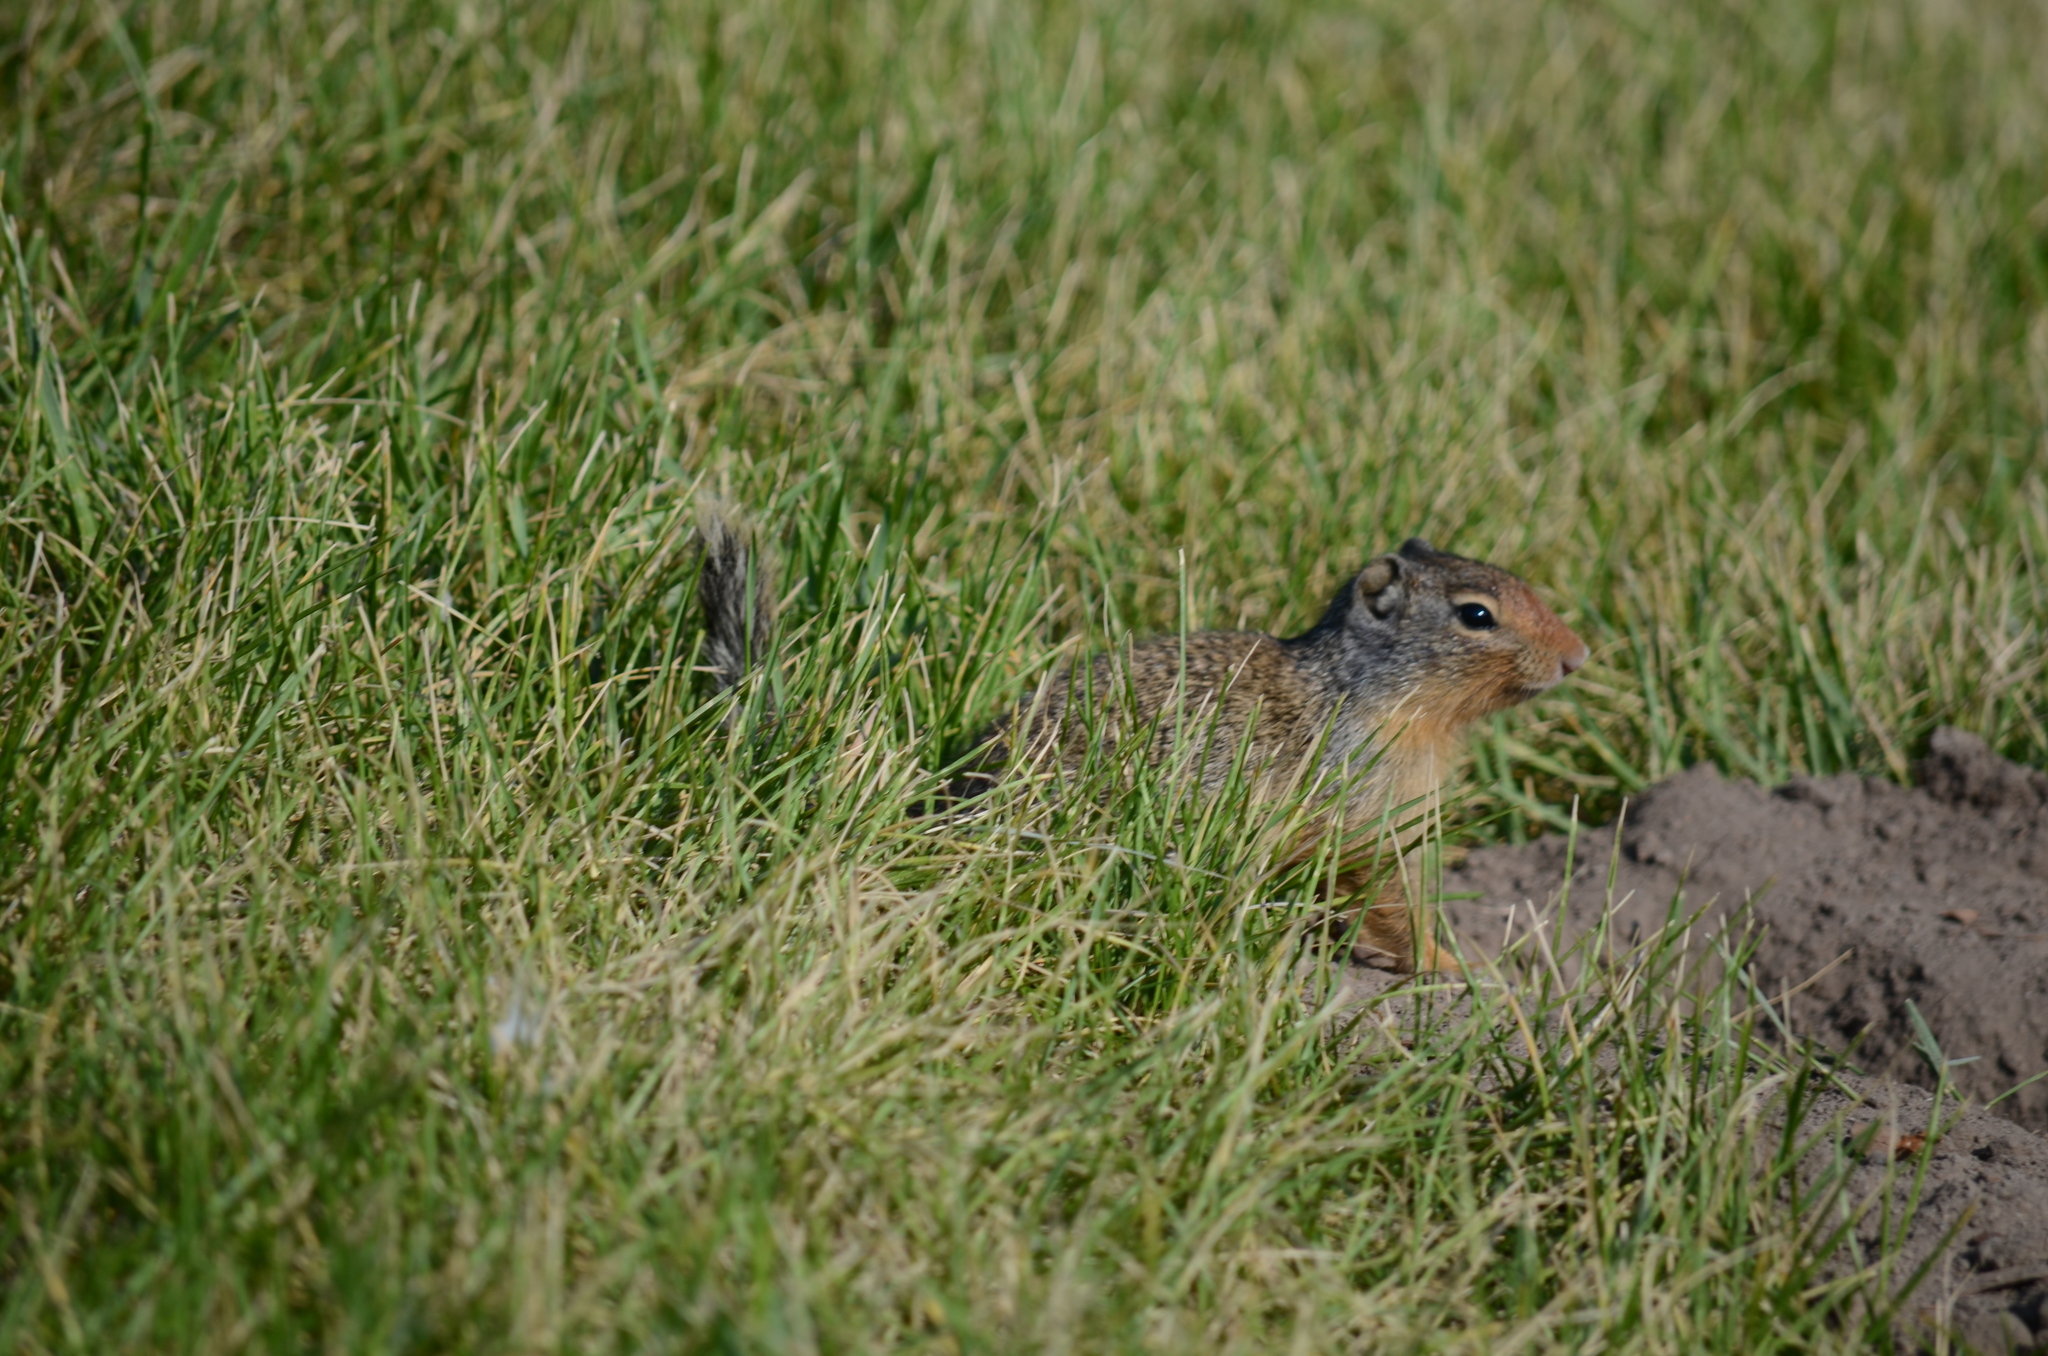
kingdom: Animalia
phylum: Chordata
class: Mammalia
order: Rodentia
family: Sciuridae
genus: Urocitellus
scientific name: Urocitellus columbianus
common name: Columbian ground squirrel
